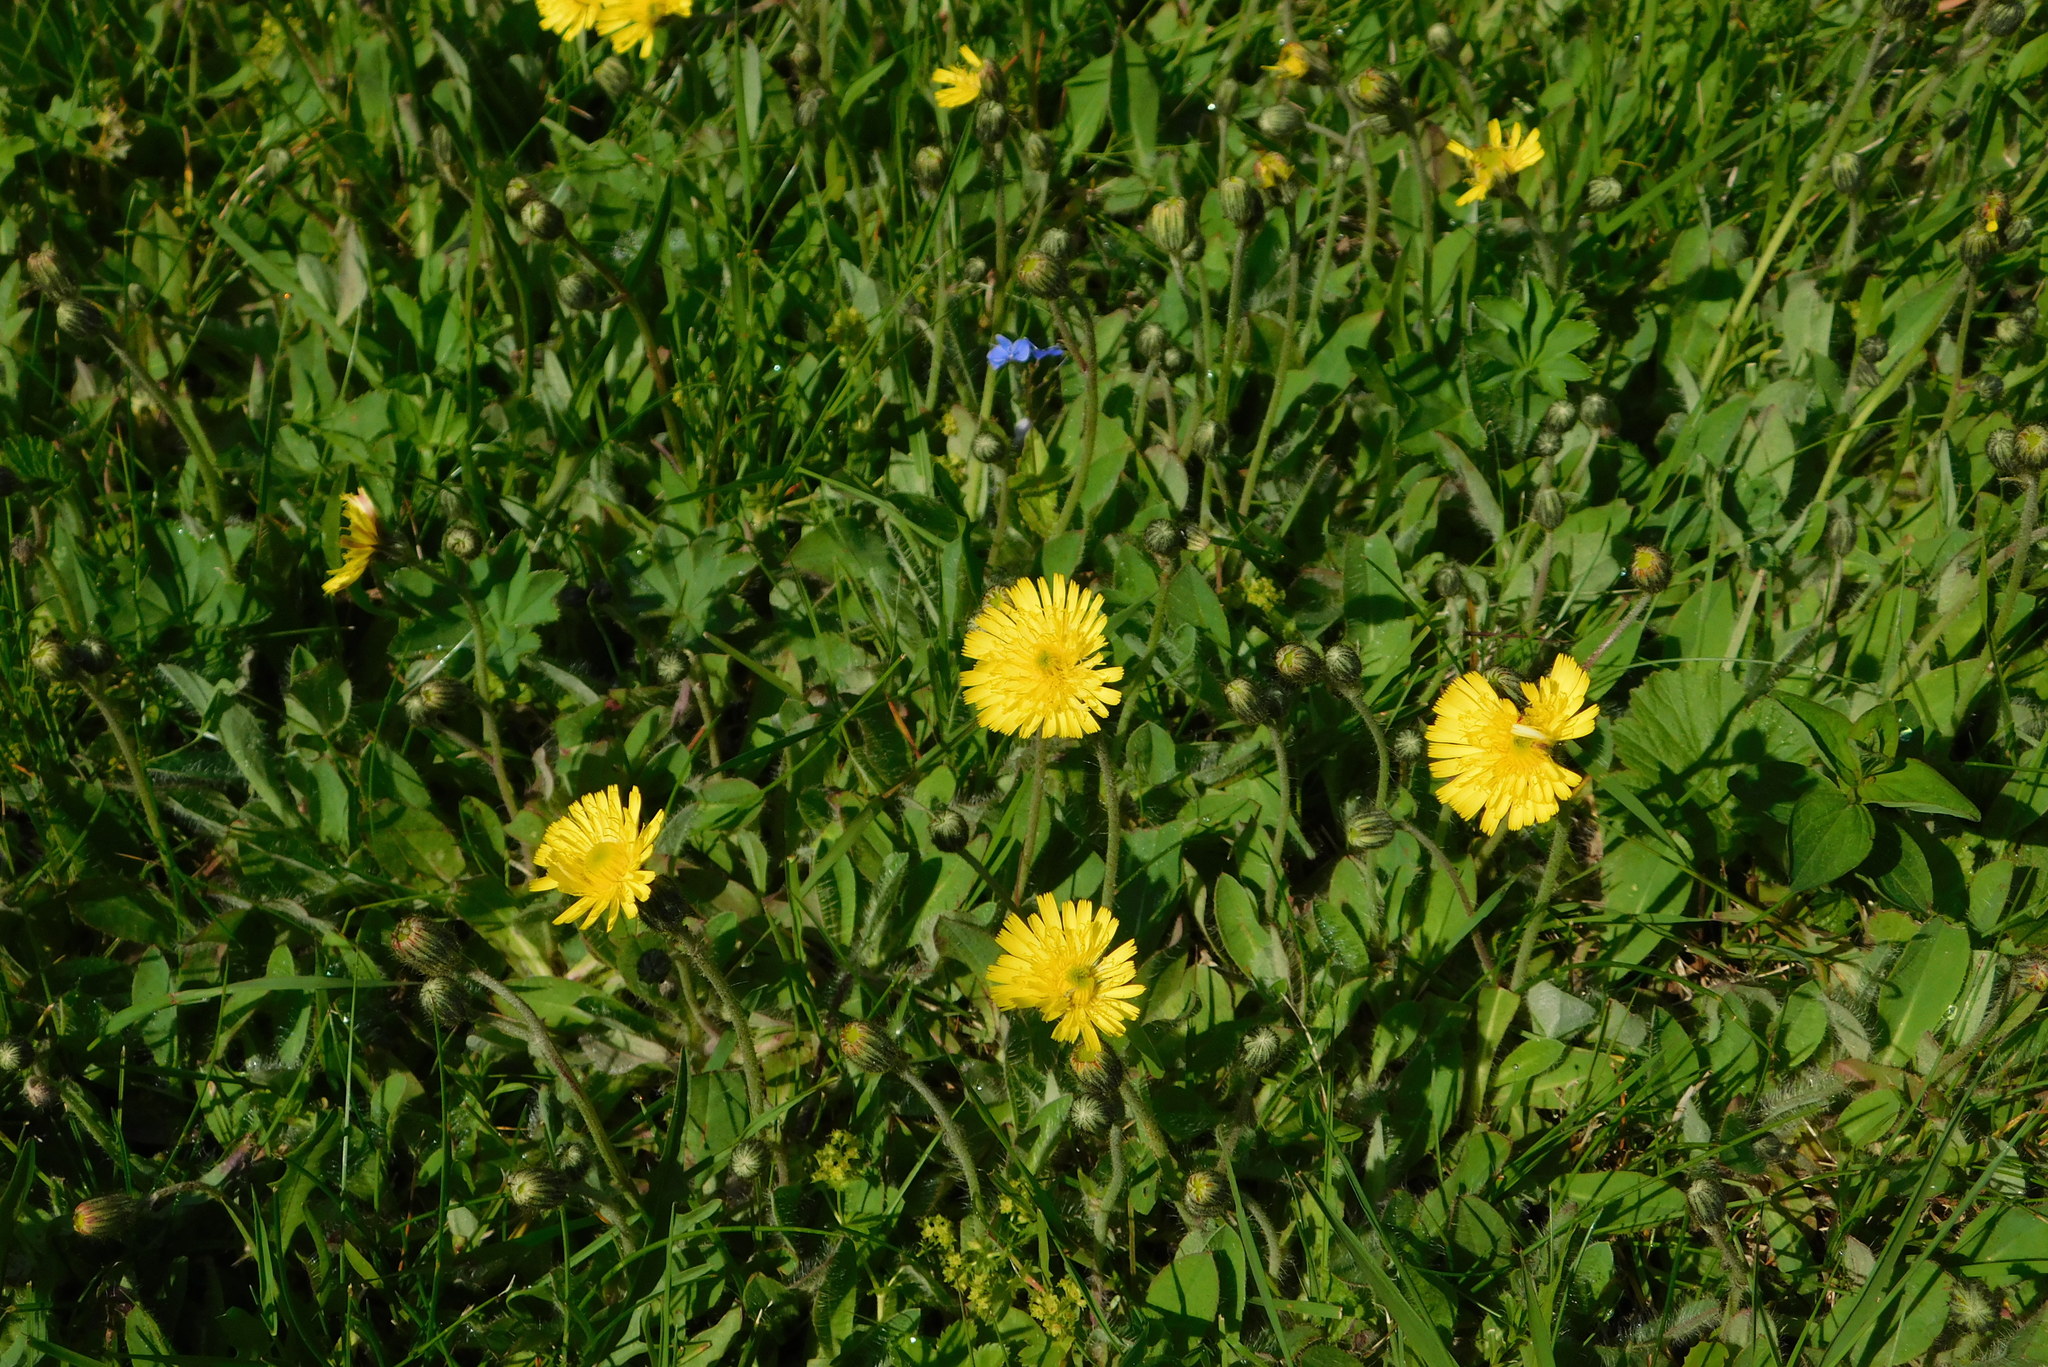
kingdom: Plantae
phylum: Tracheophyta
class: Magnoliopsida
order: Asterales
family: Asteraceae
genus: Pilosella
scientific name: Pilosella officinarum
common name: Mouse-ear hawkweed
